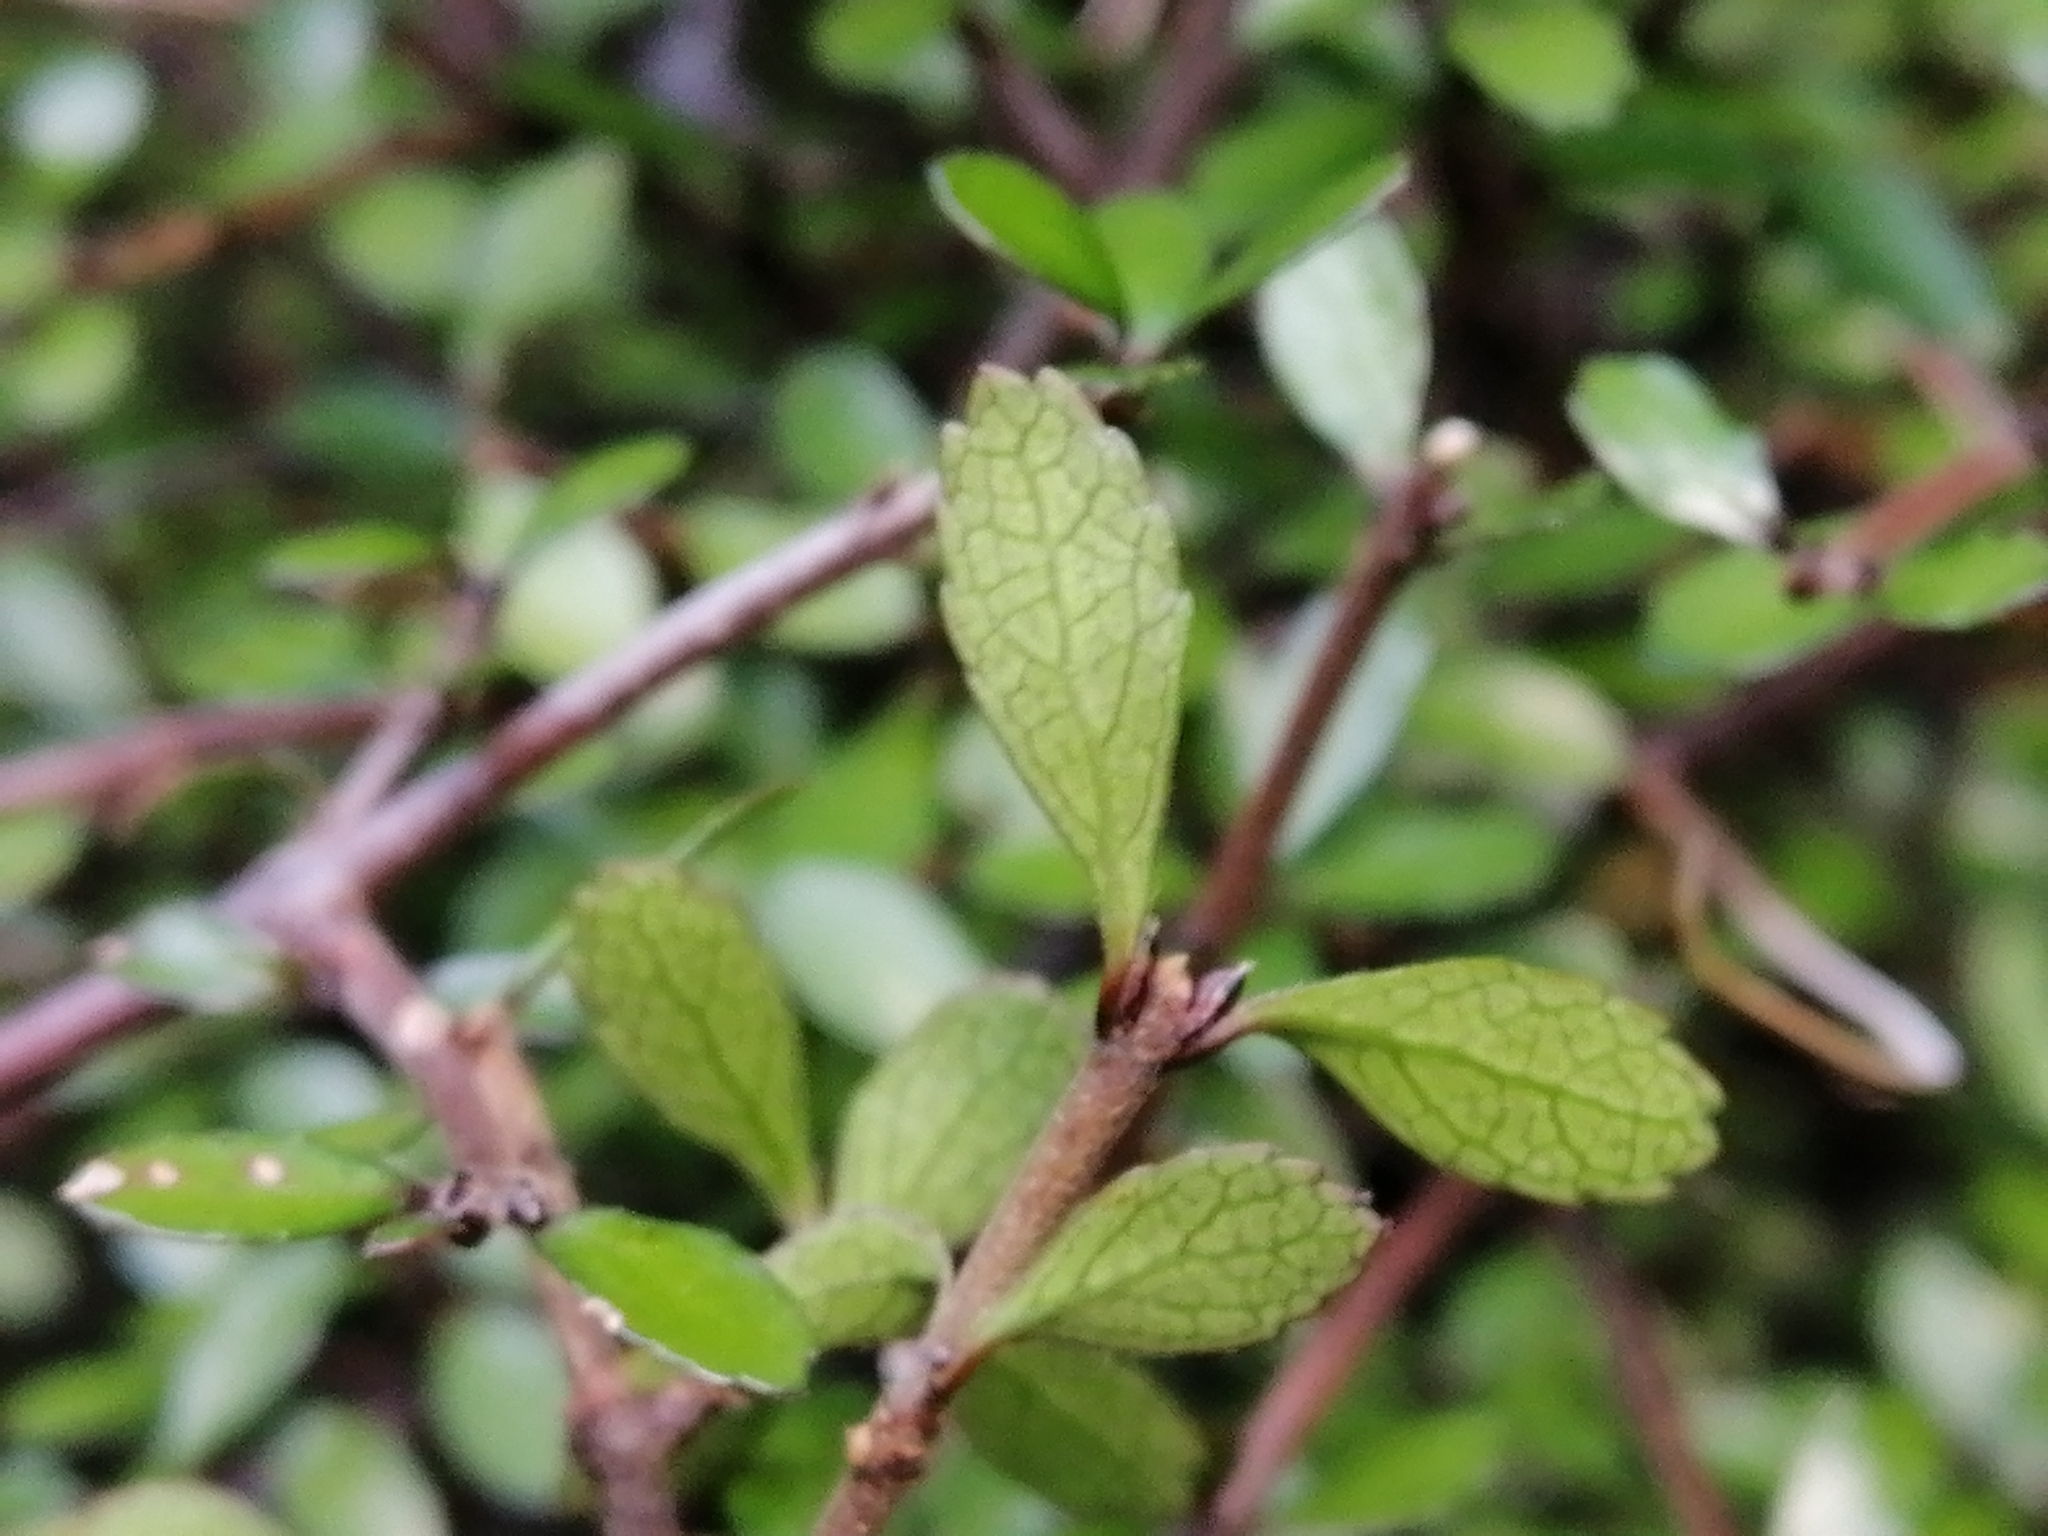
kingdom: Plantae
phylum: Tracheophyta
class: Magnoliopsida
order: Oxalidales
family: Elaeocarpaceae
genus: Aristotelia
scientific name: Aristotelia
